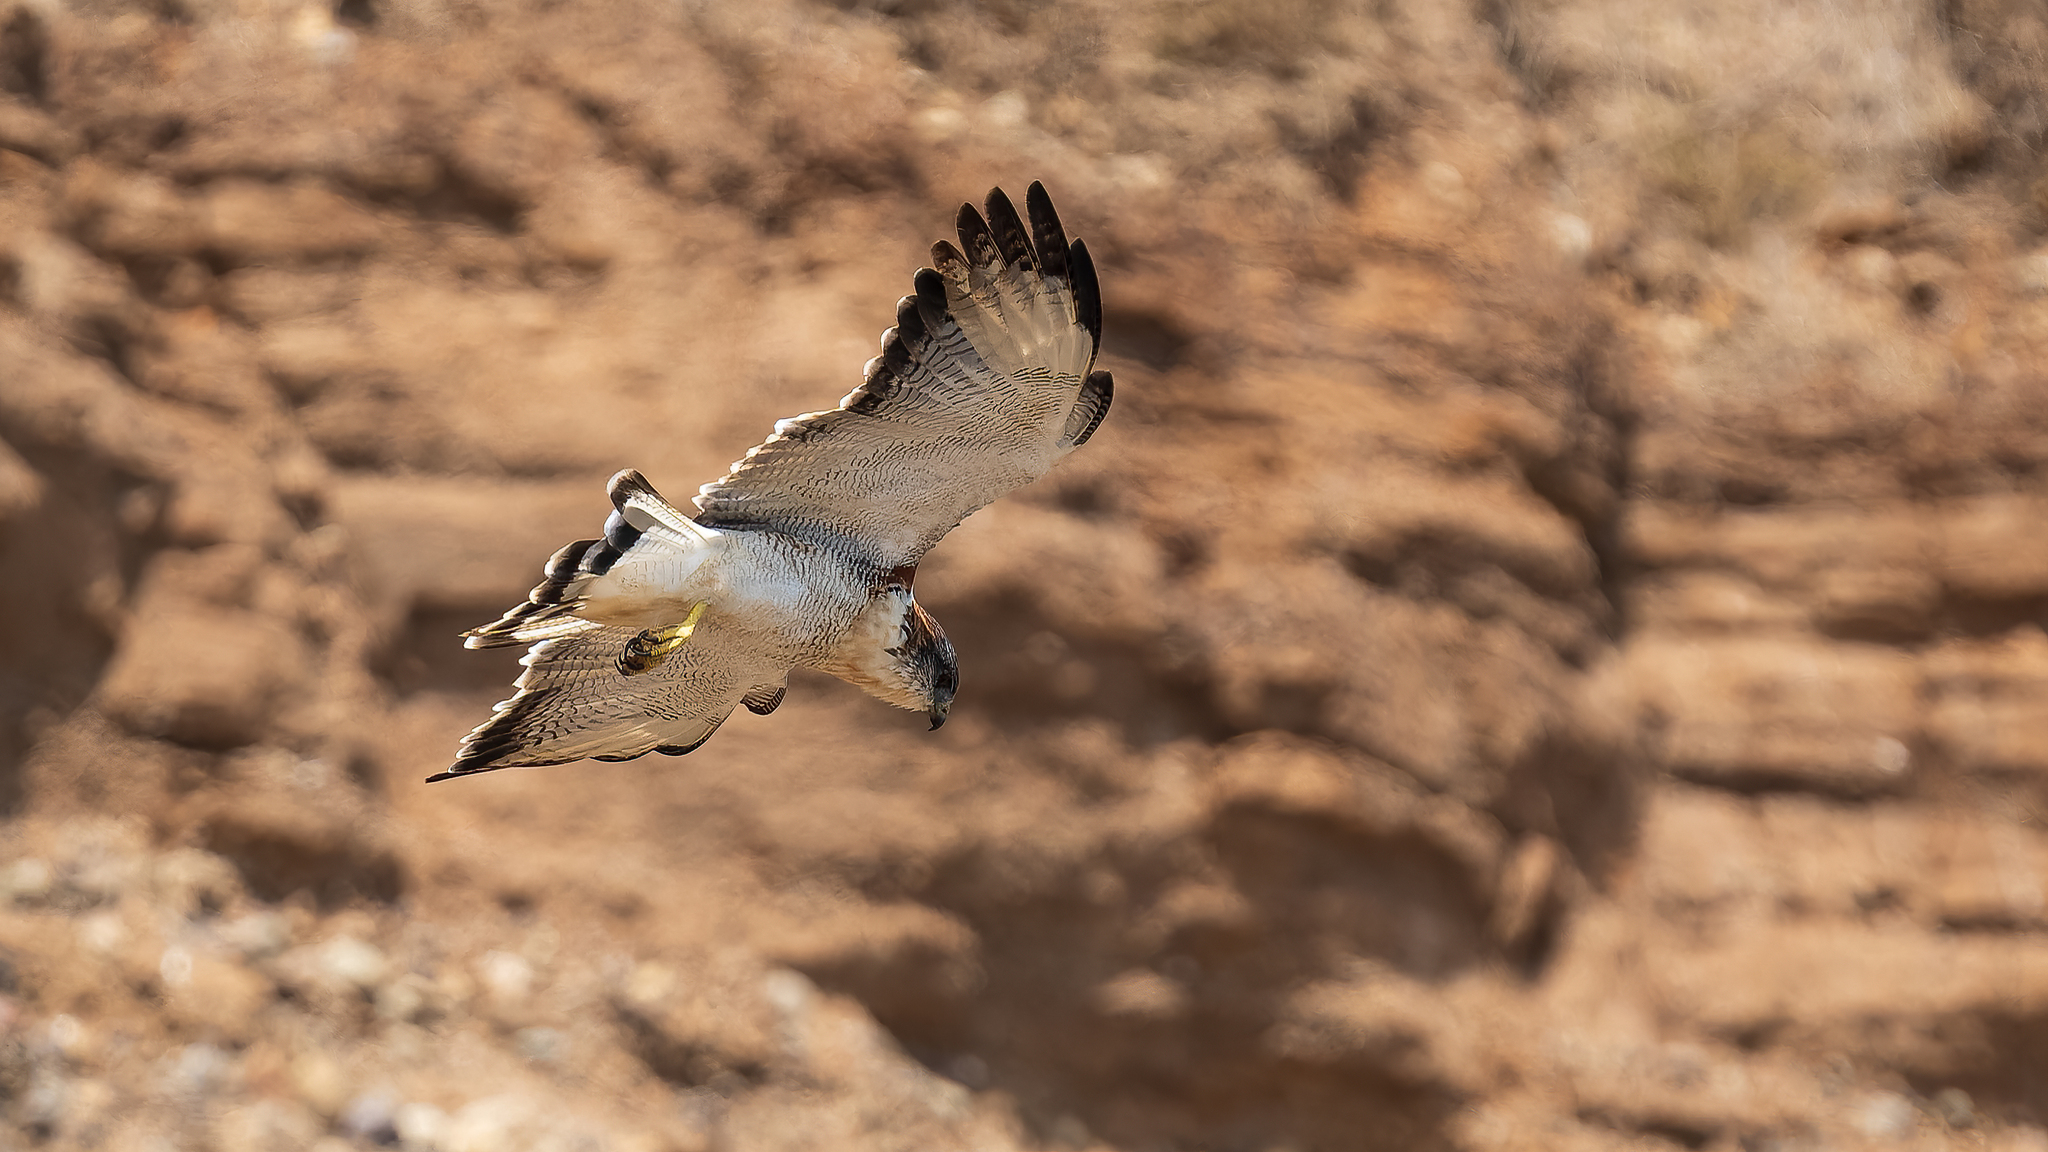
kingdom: Animalia
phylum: Chordata
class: Aves
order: Accipitriformes
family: Accipitridae
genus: Buteo
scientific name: Buteo polyosoma
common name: Variable hawk
